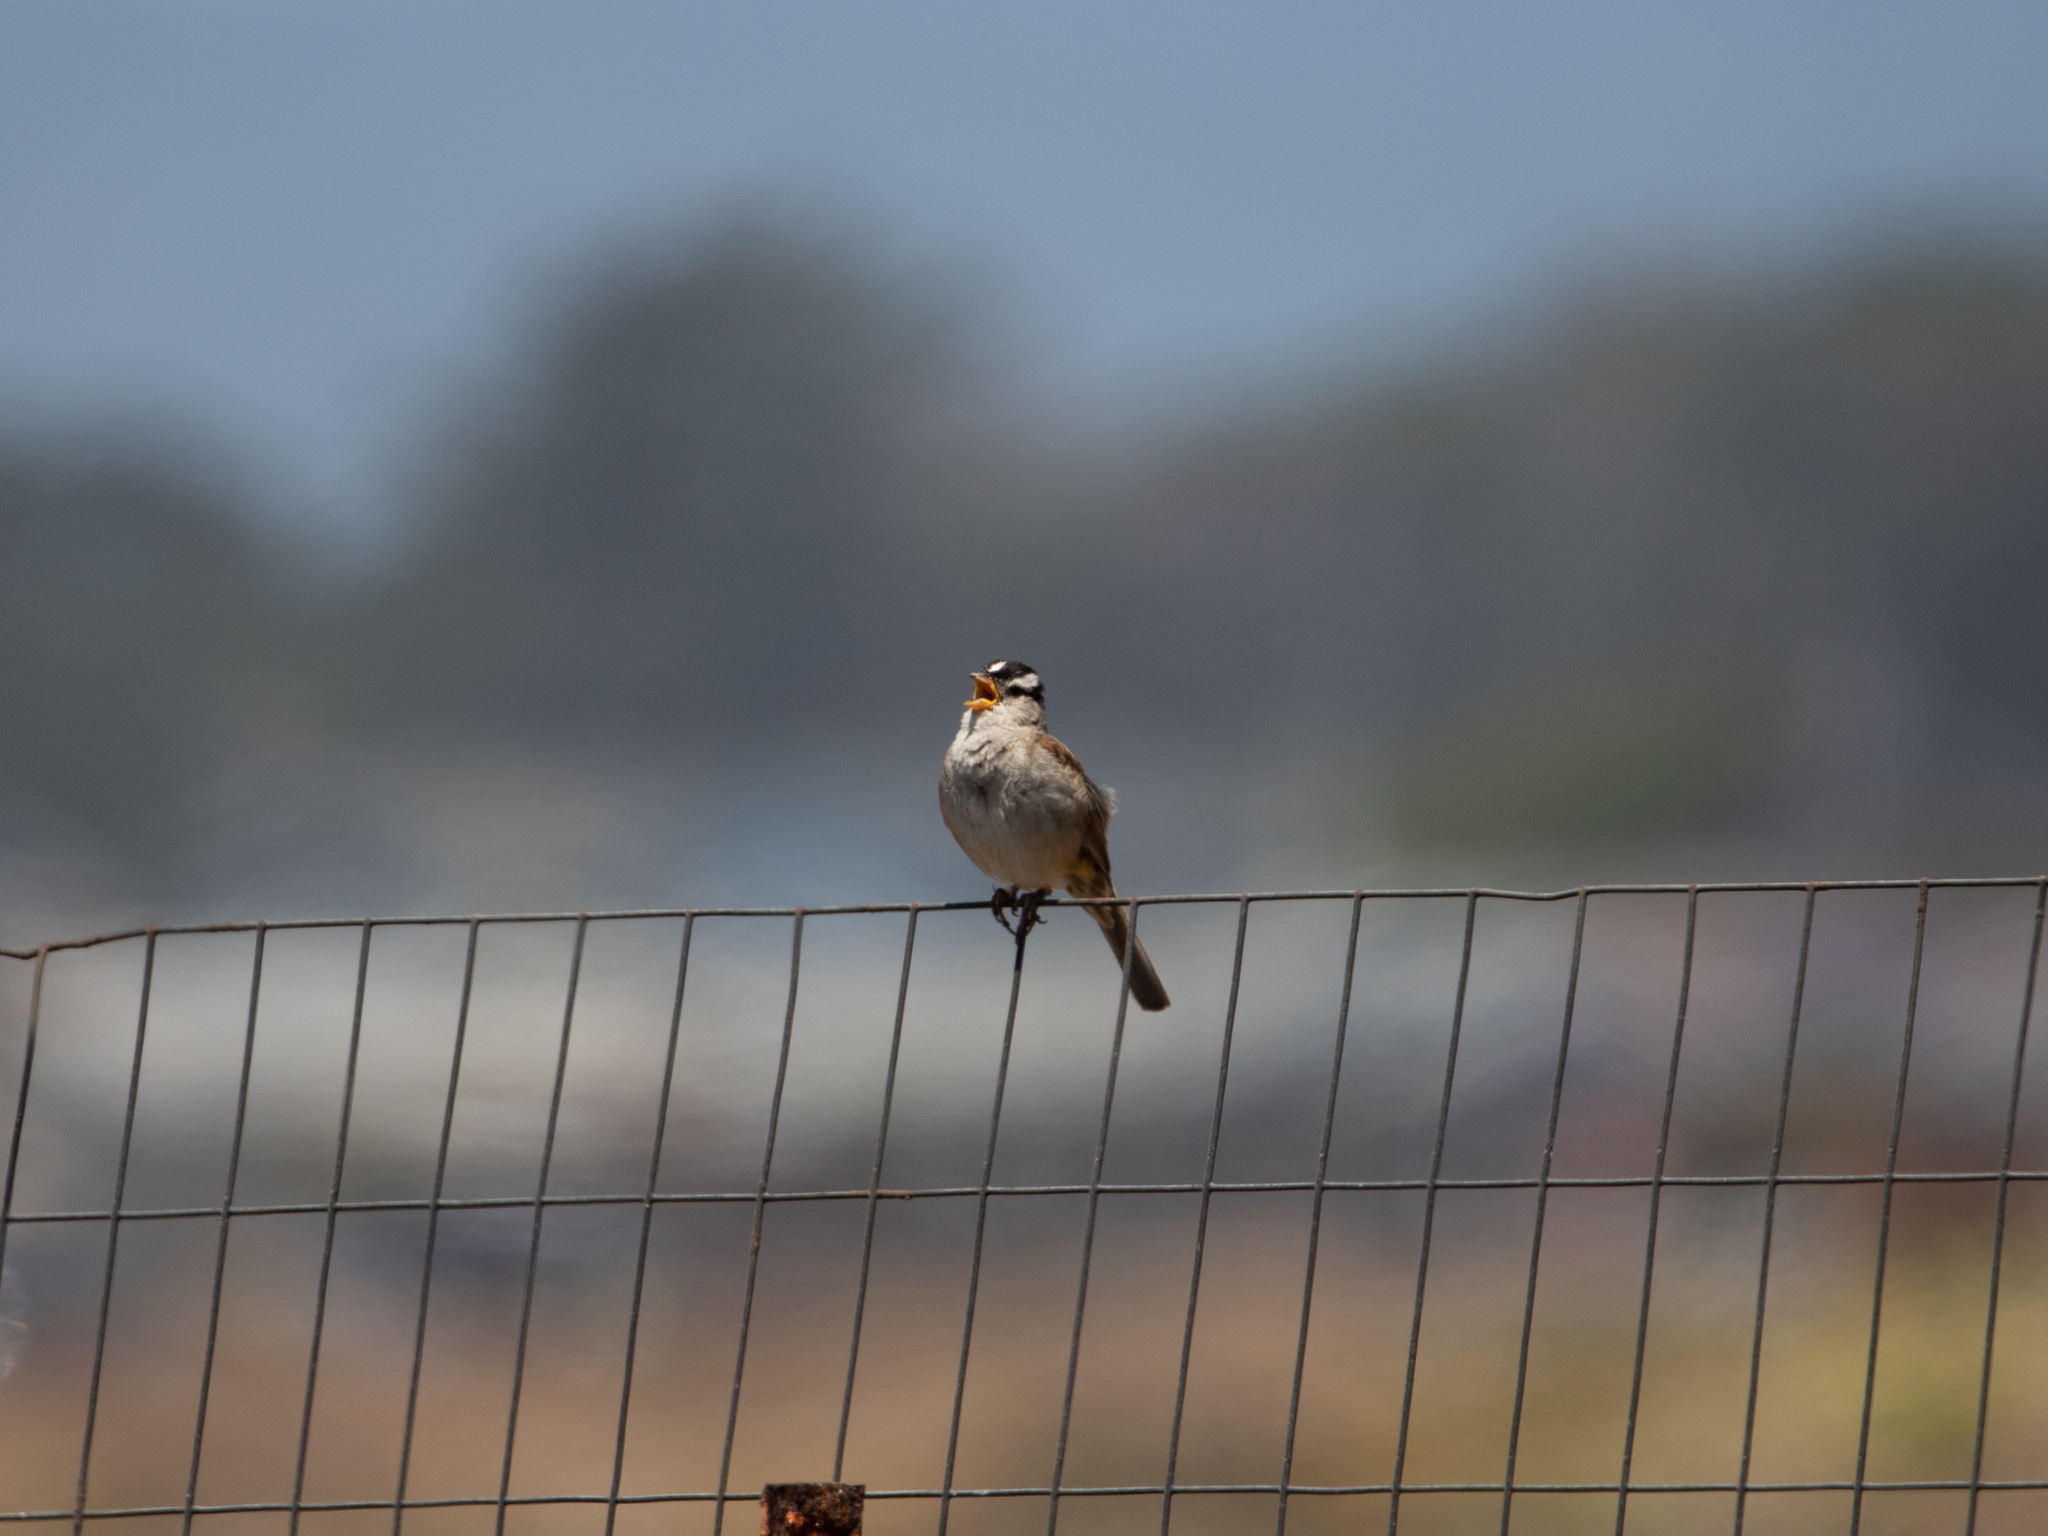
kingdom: Animalia
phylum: Chordata
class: Aves
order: Passeriformes
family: Passerellidae
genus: Zonotrichia
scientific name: Zonotrichia leucophrys
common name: White-crowned sparrow
